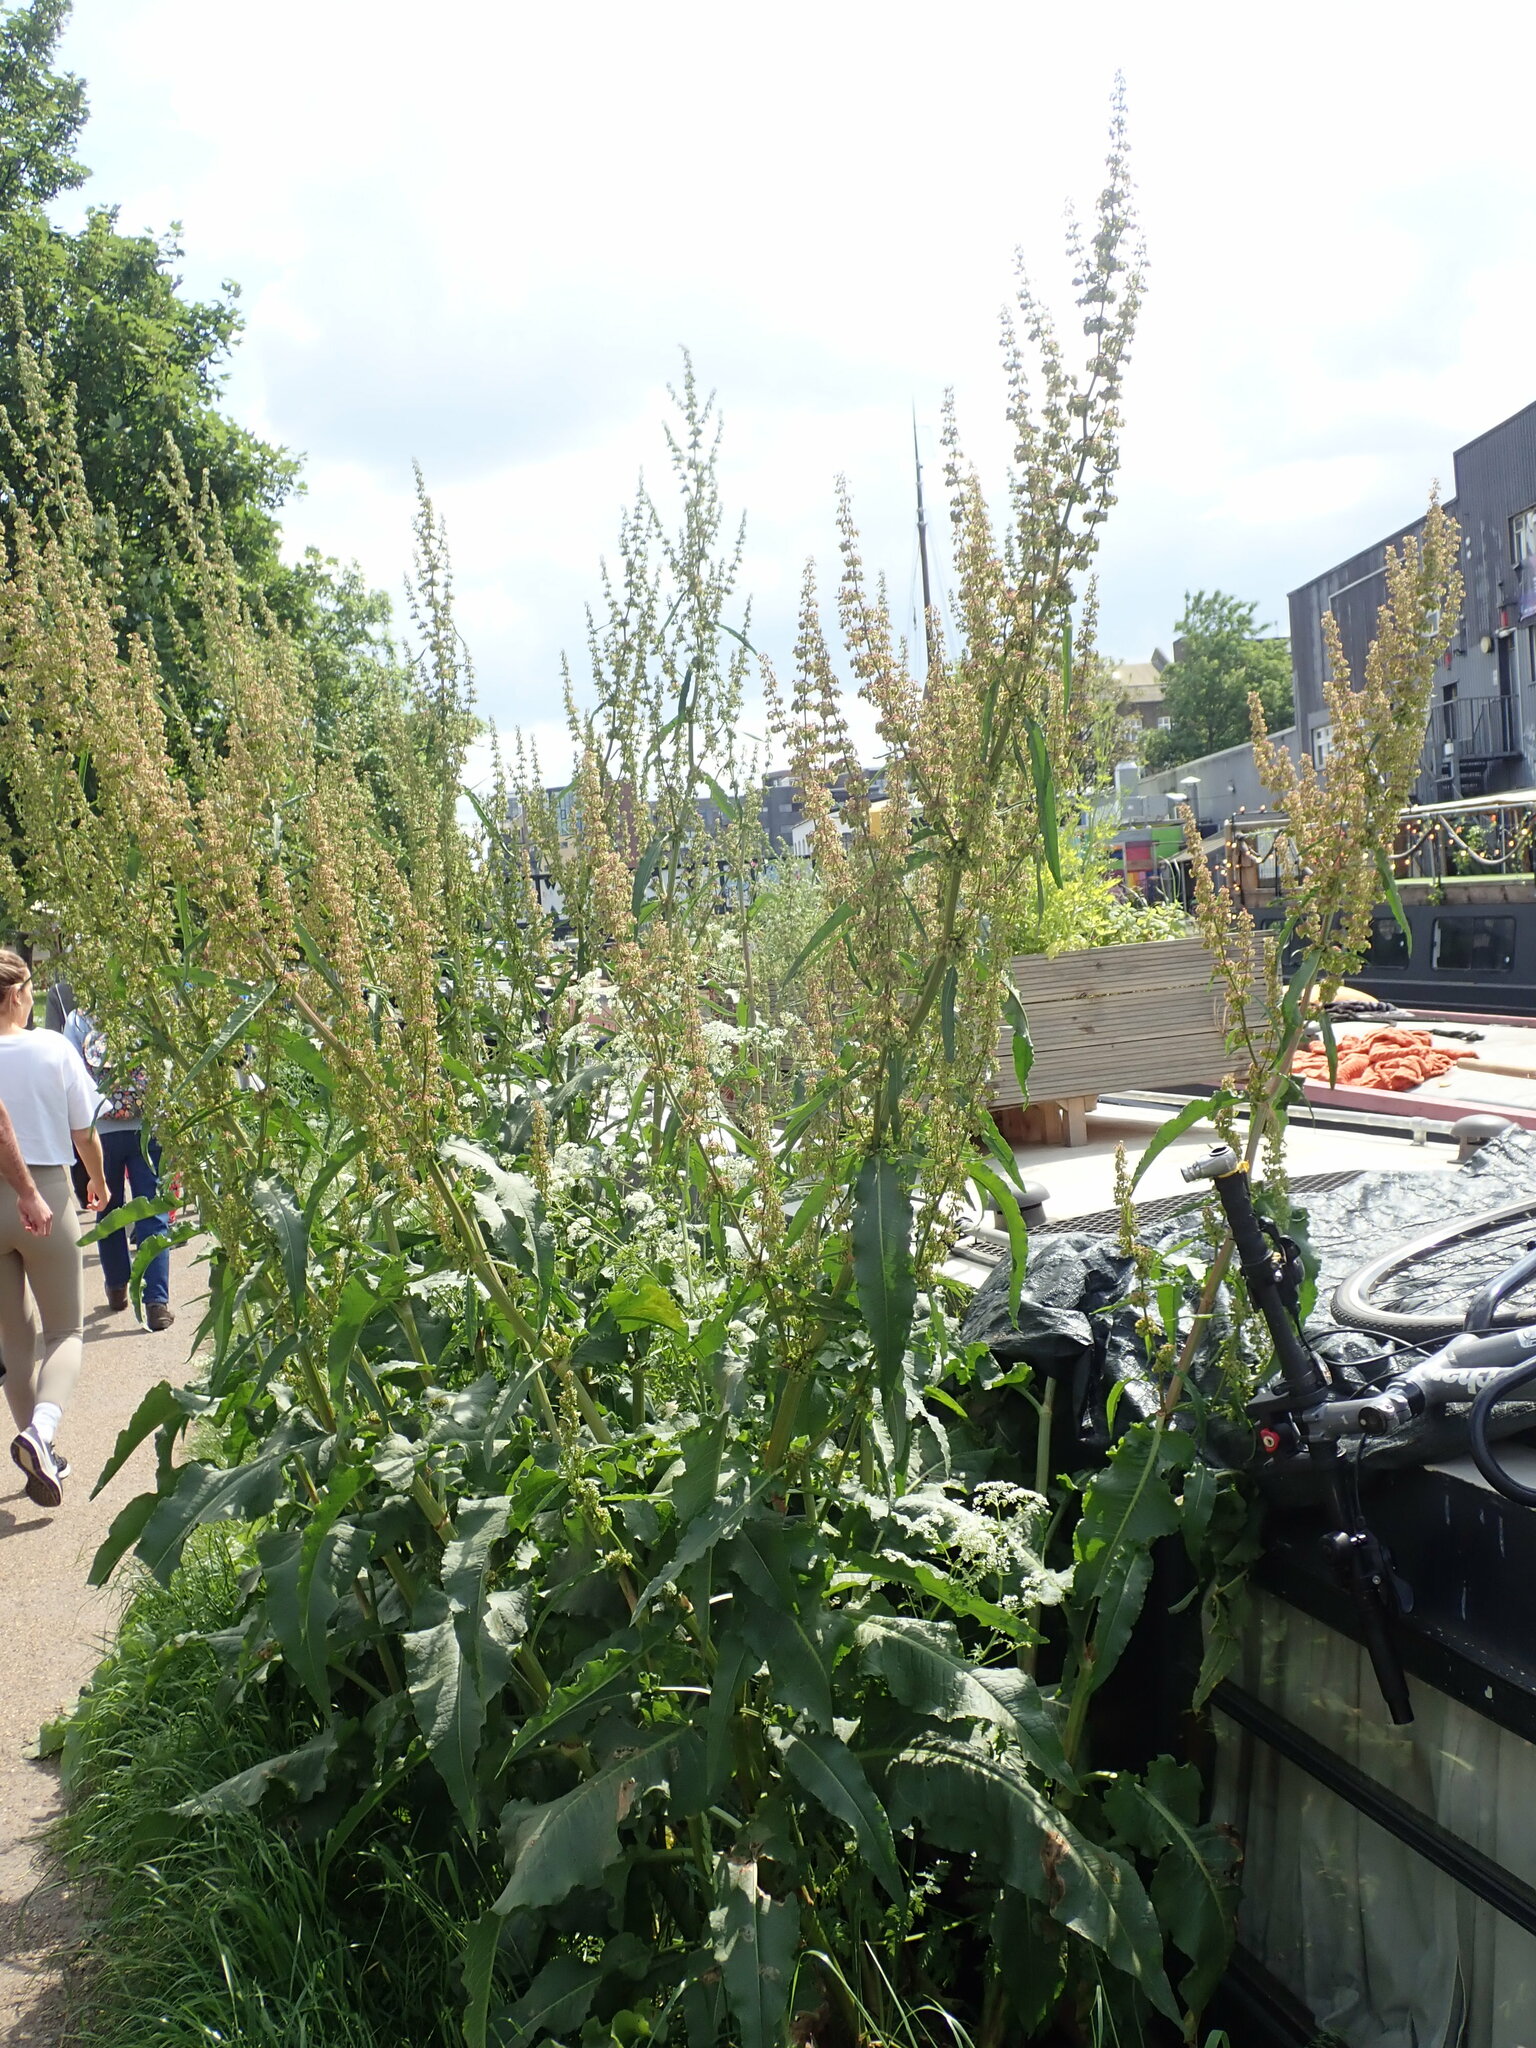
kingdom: Plantae
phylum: Tracheophyta
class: Magnoliopsida
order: Caryophyllales
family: Polygonaceae
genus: Rumex
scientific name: Rumex cristatus
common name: Greek dock
